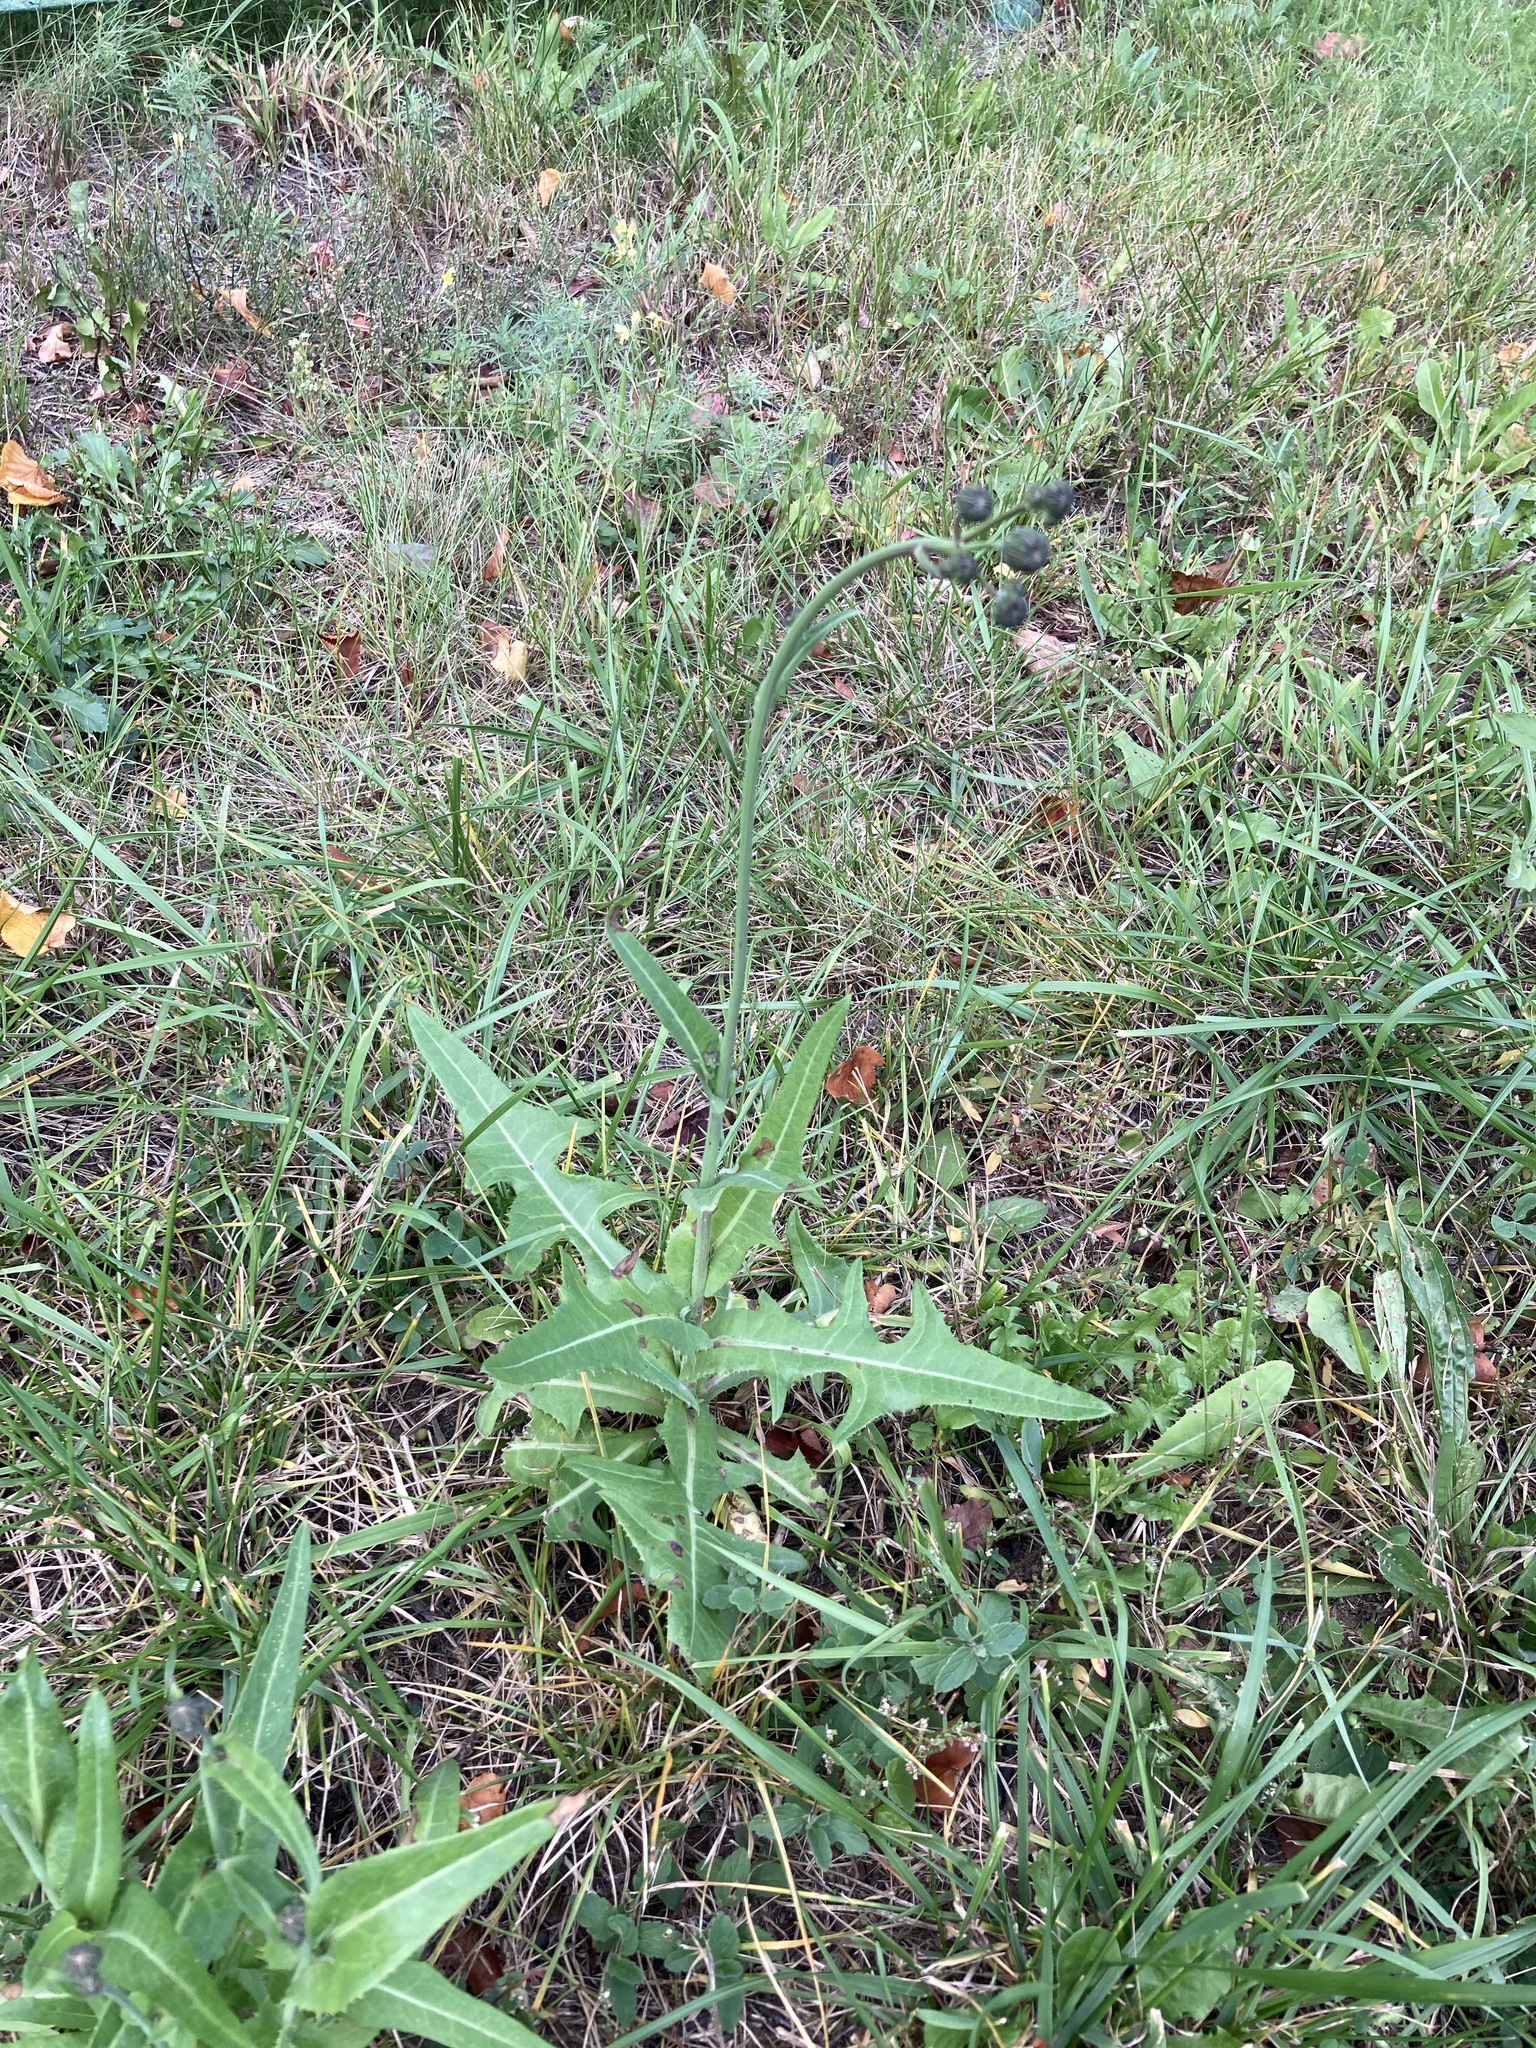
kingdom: Plantae
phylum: Tracheophyta
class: Magnoliopsida
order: Asterales
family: Asteraceae
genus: Sonchus
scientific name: Sonchus arvensis
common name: Perennial sow-thistle
